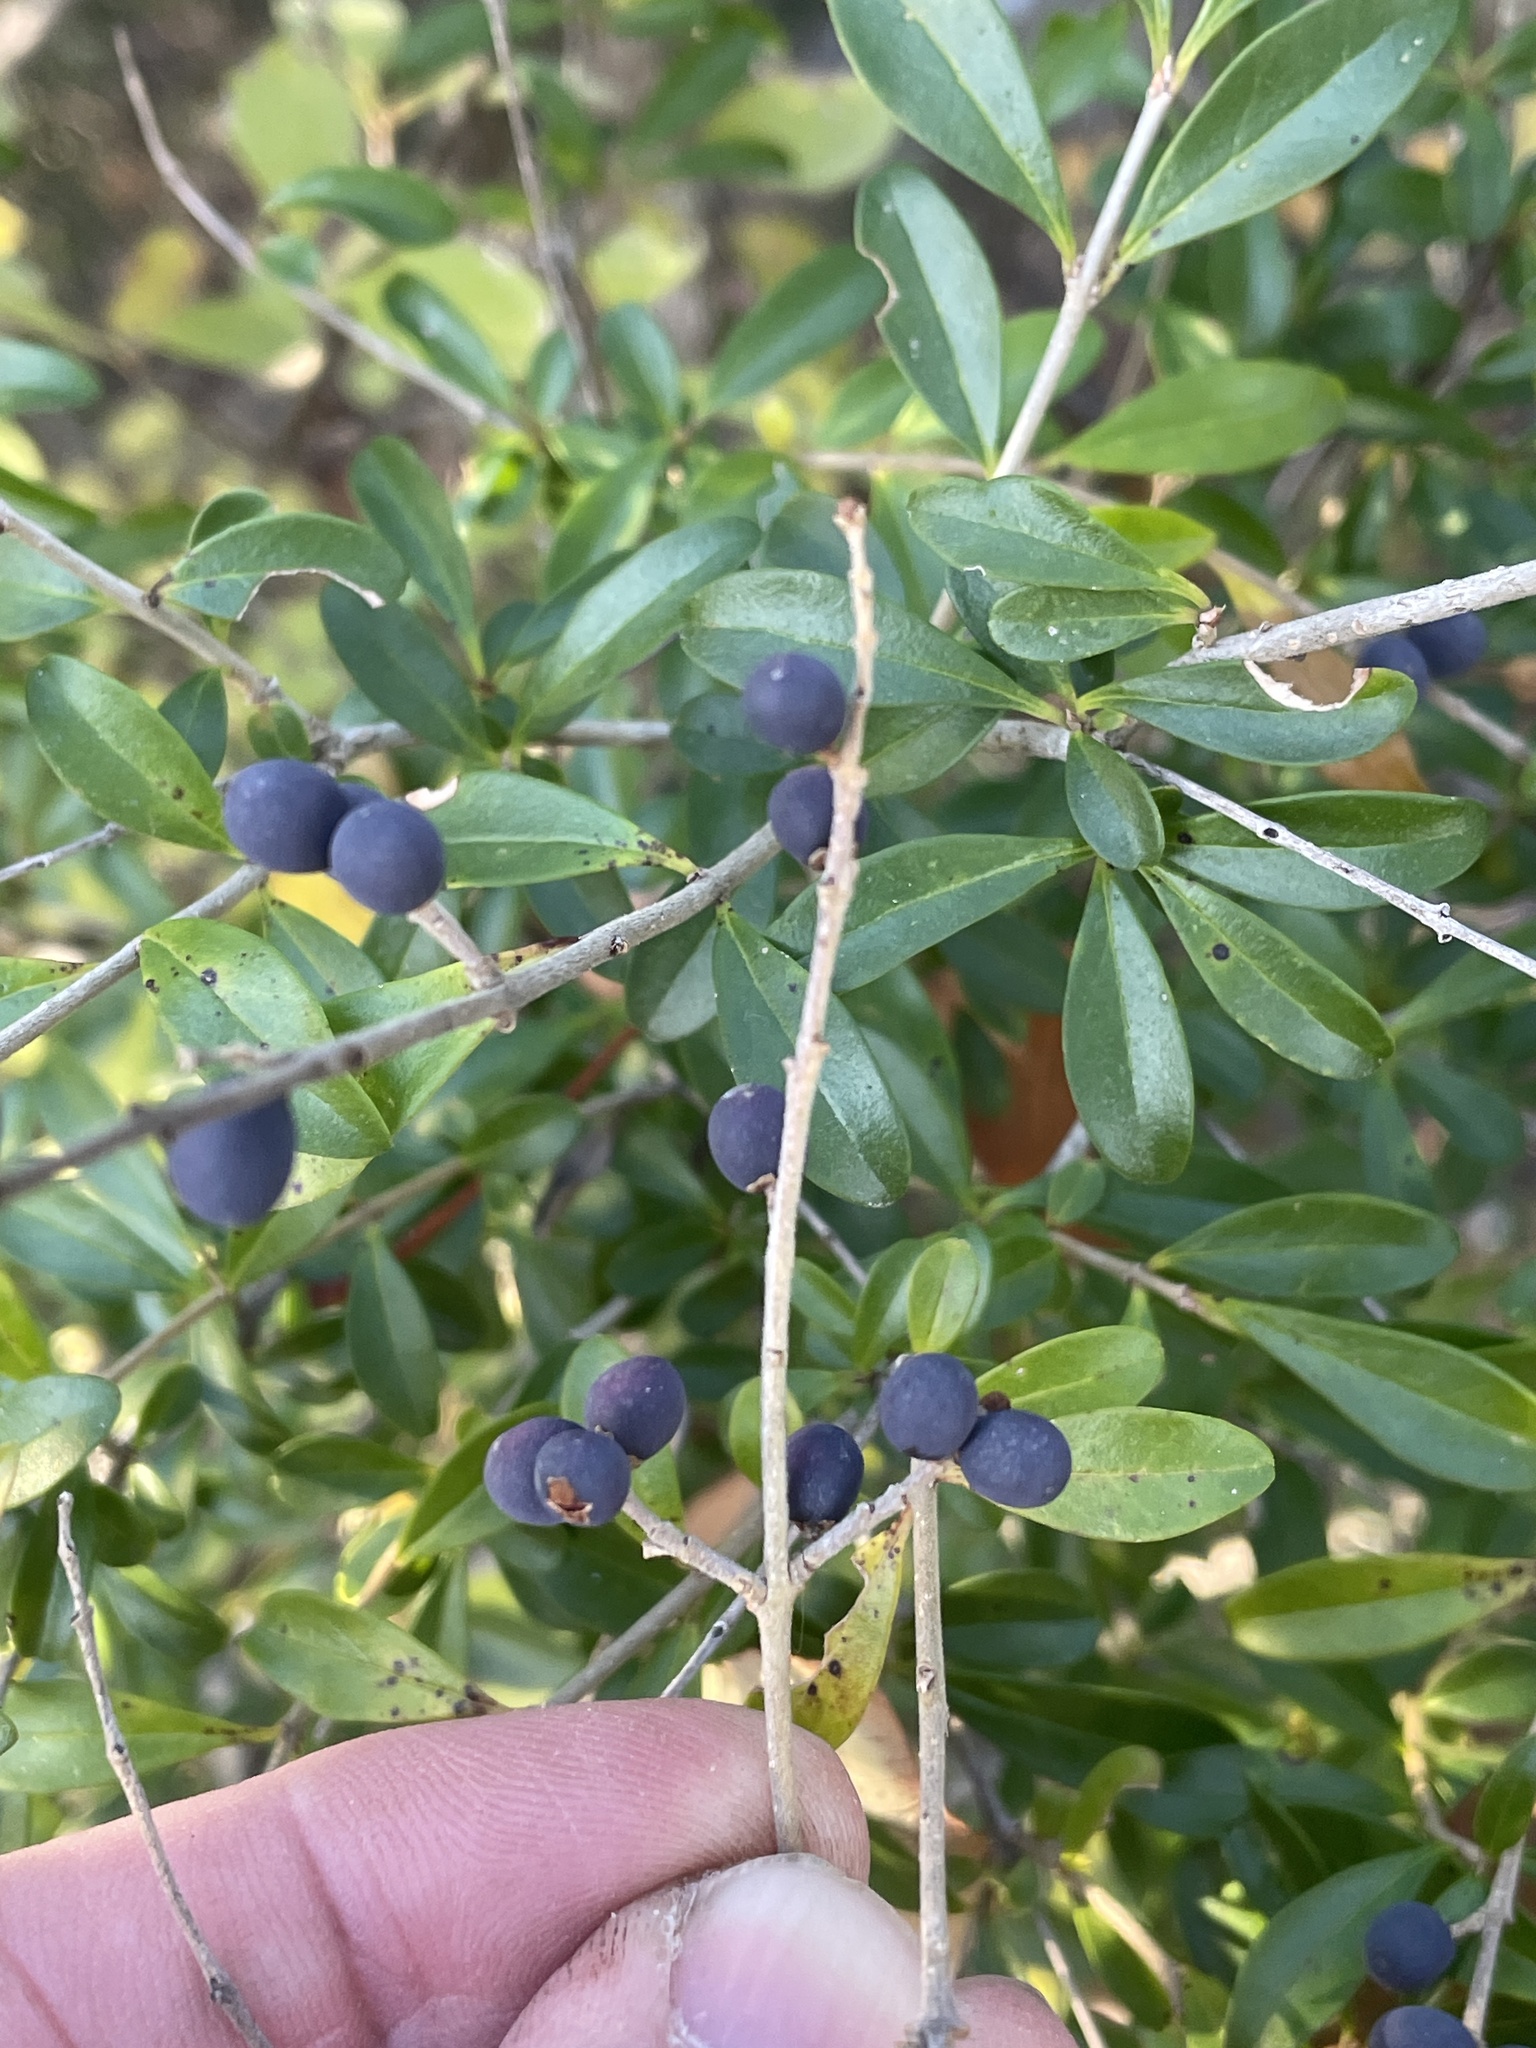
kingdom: Plantae
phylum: Tracheophyta
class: Magnoliopsida
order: Lamiales
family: Oleaceae
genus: Ligustrum
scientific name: Ligustrum quihoui
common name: Waxyleaf privet
